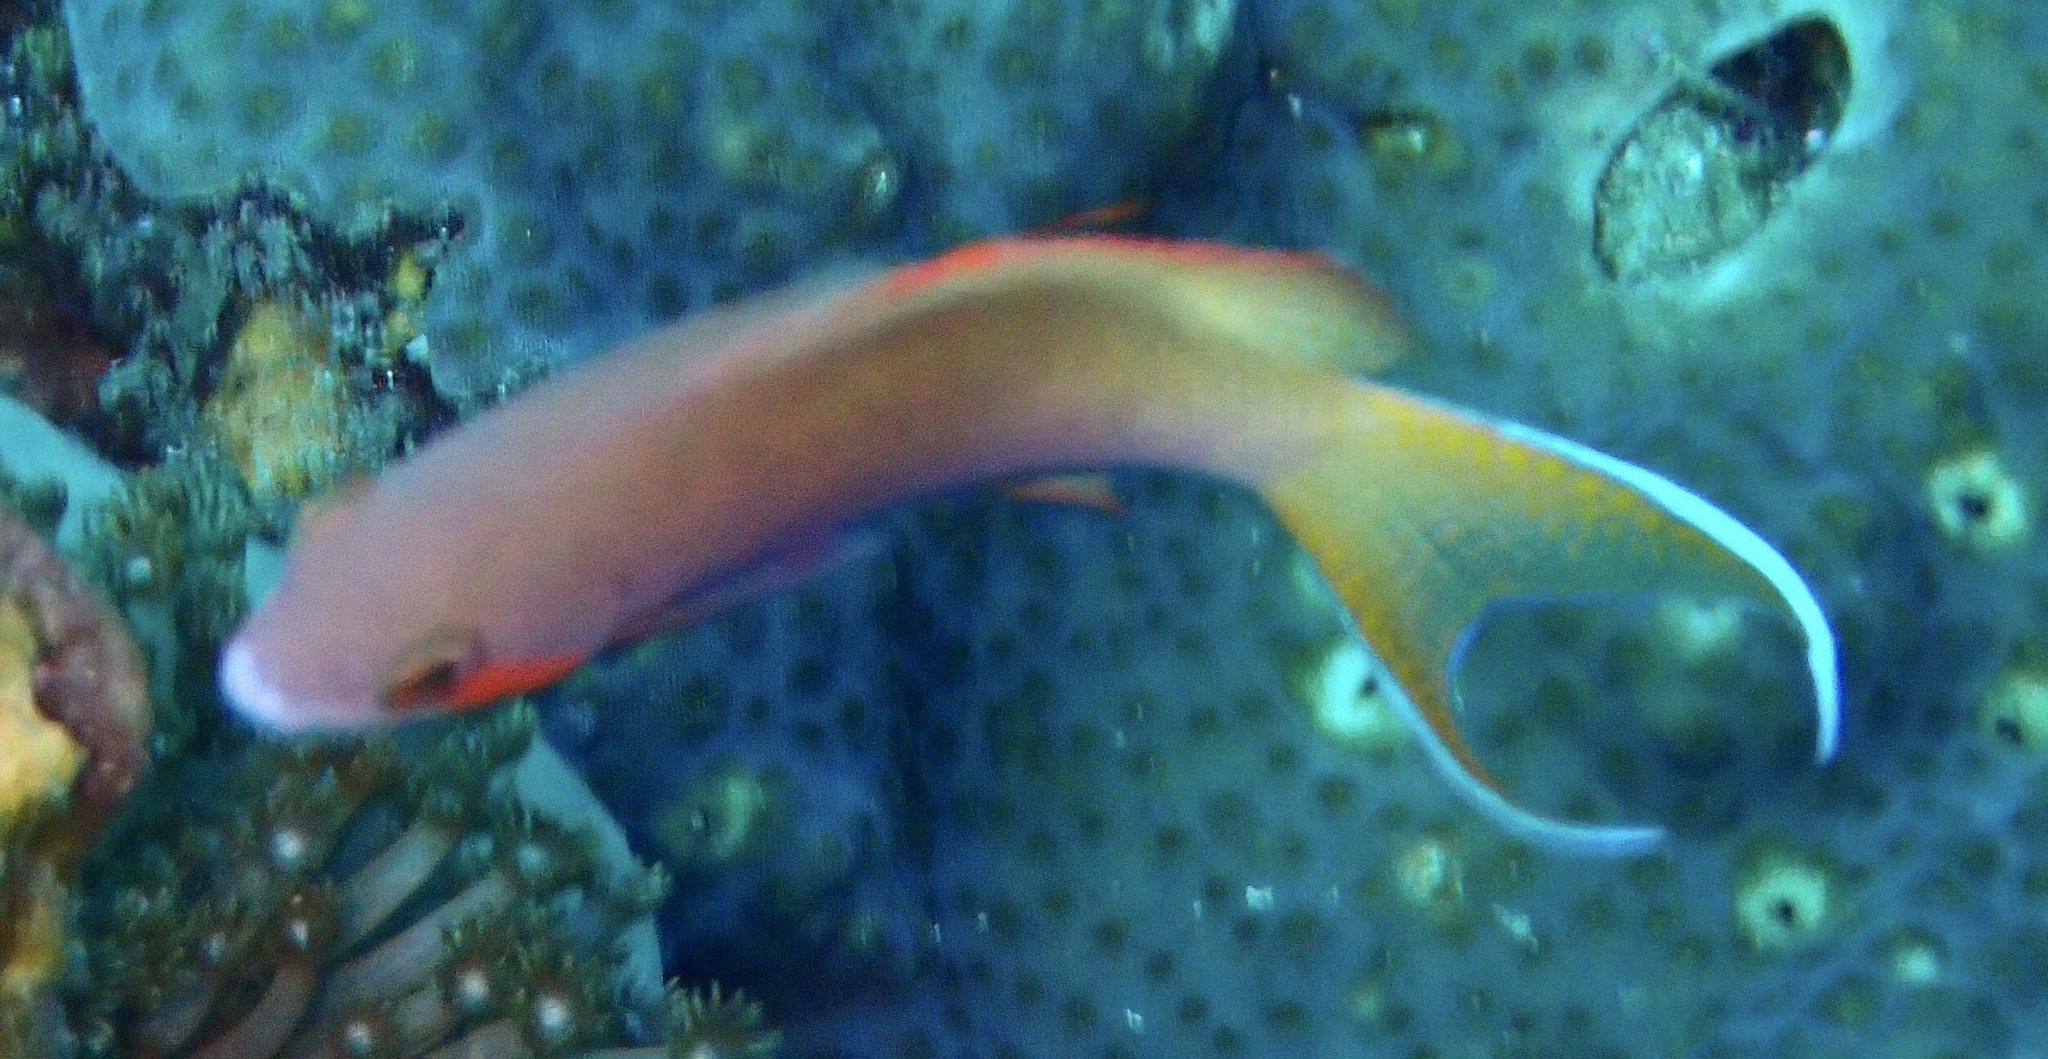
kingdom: Animalia
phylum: Chordata
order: Perciformes
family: Serranidae
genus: Pseudanthias
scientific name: Pseudanthias huchtii
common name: Pacific basslet
